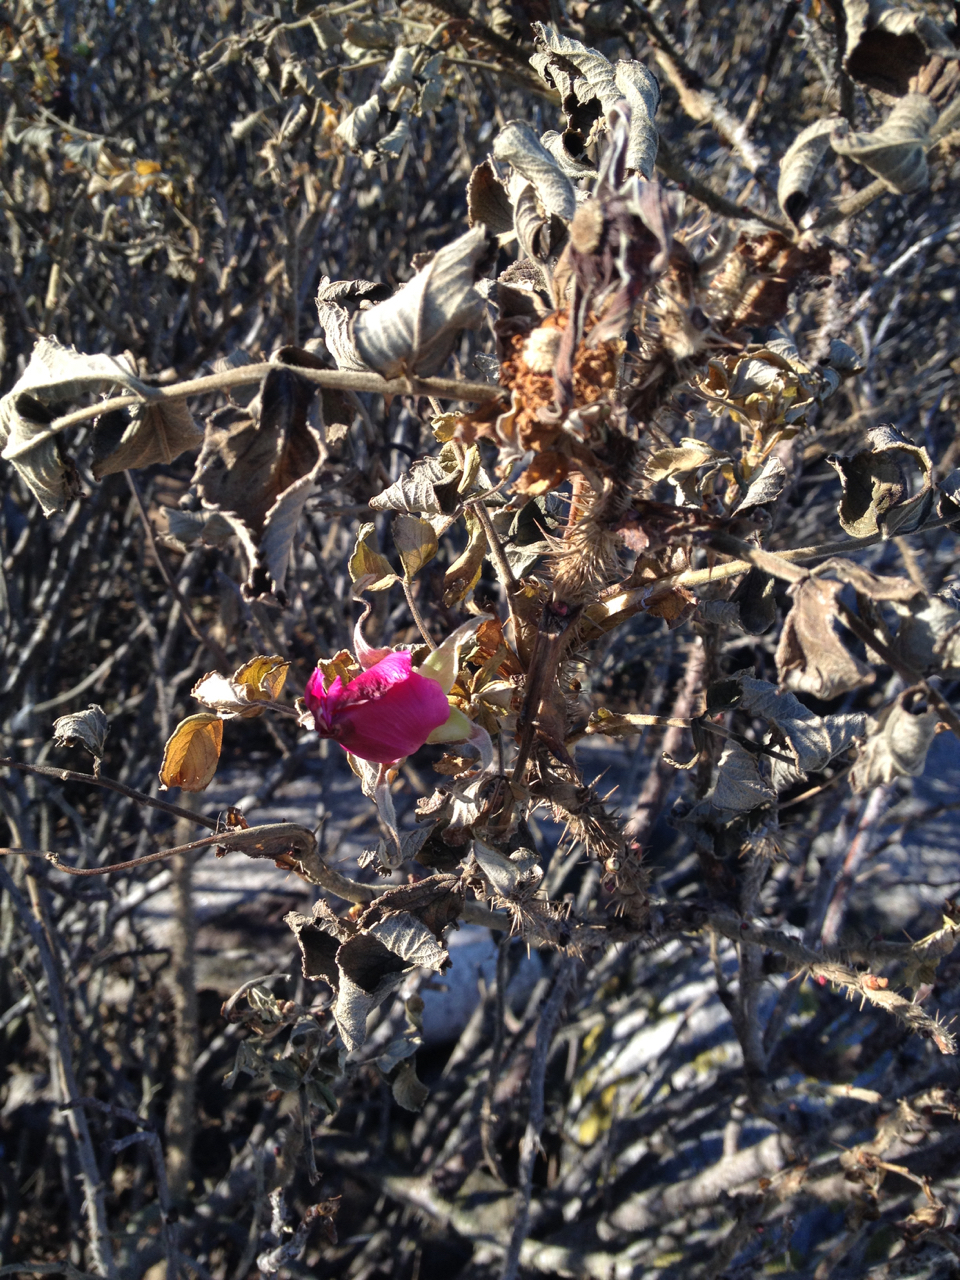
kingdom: Plantae
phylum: Tracheophyta
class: Magnoliopsida
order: Rosales
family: Rosaceae
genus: Rosa
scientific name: Rosa rugosa
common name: Japanese rose
